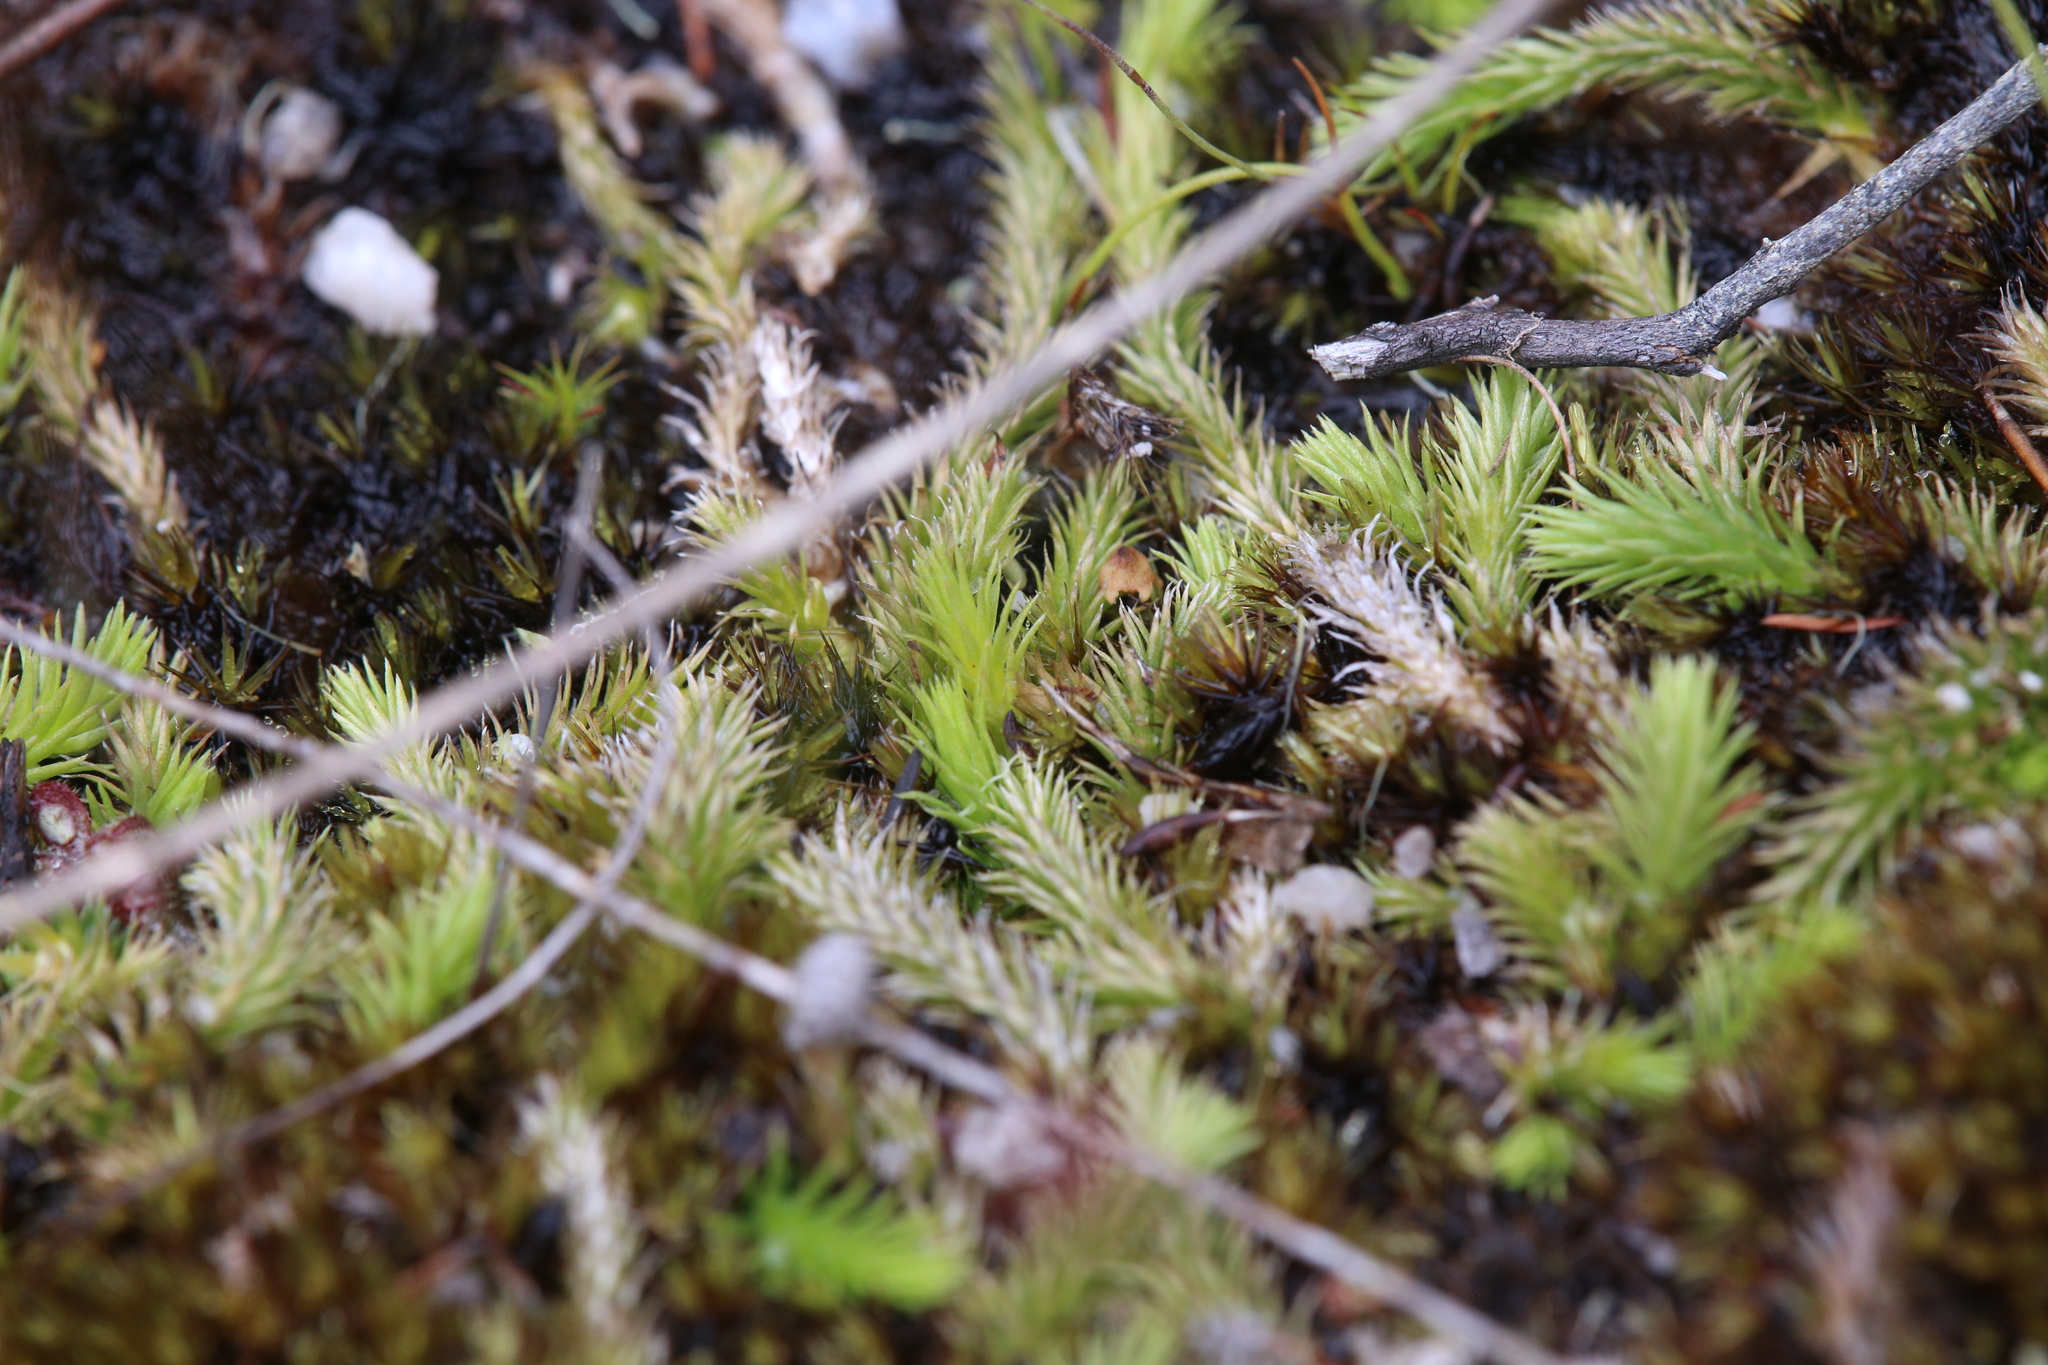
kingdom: Plantae
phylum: Tracheophyta
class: Lycopodiopsida
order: Lycopodiales
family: Lycopodiaceae
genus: Brownseya
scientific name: Brownseya serpentina
